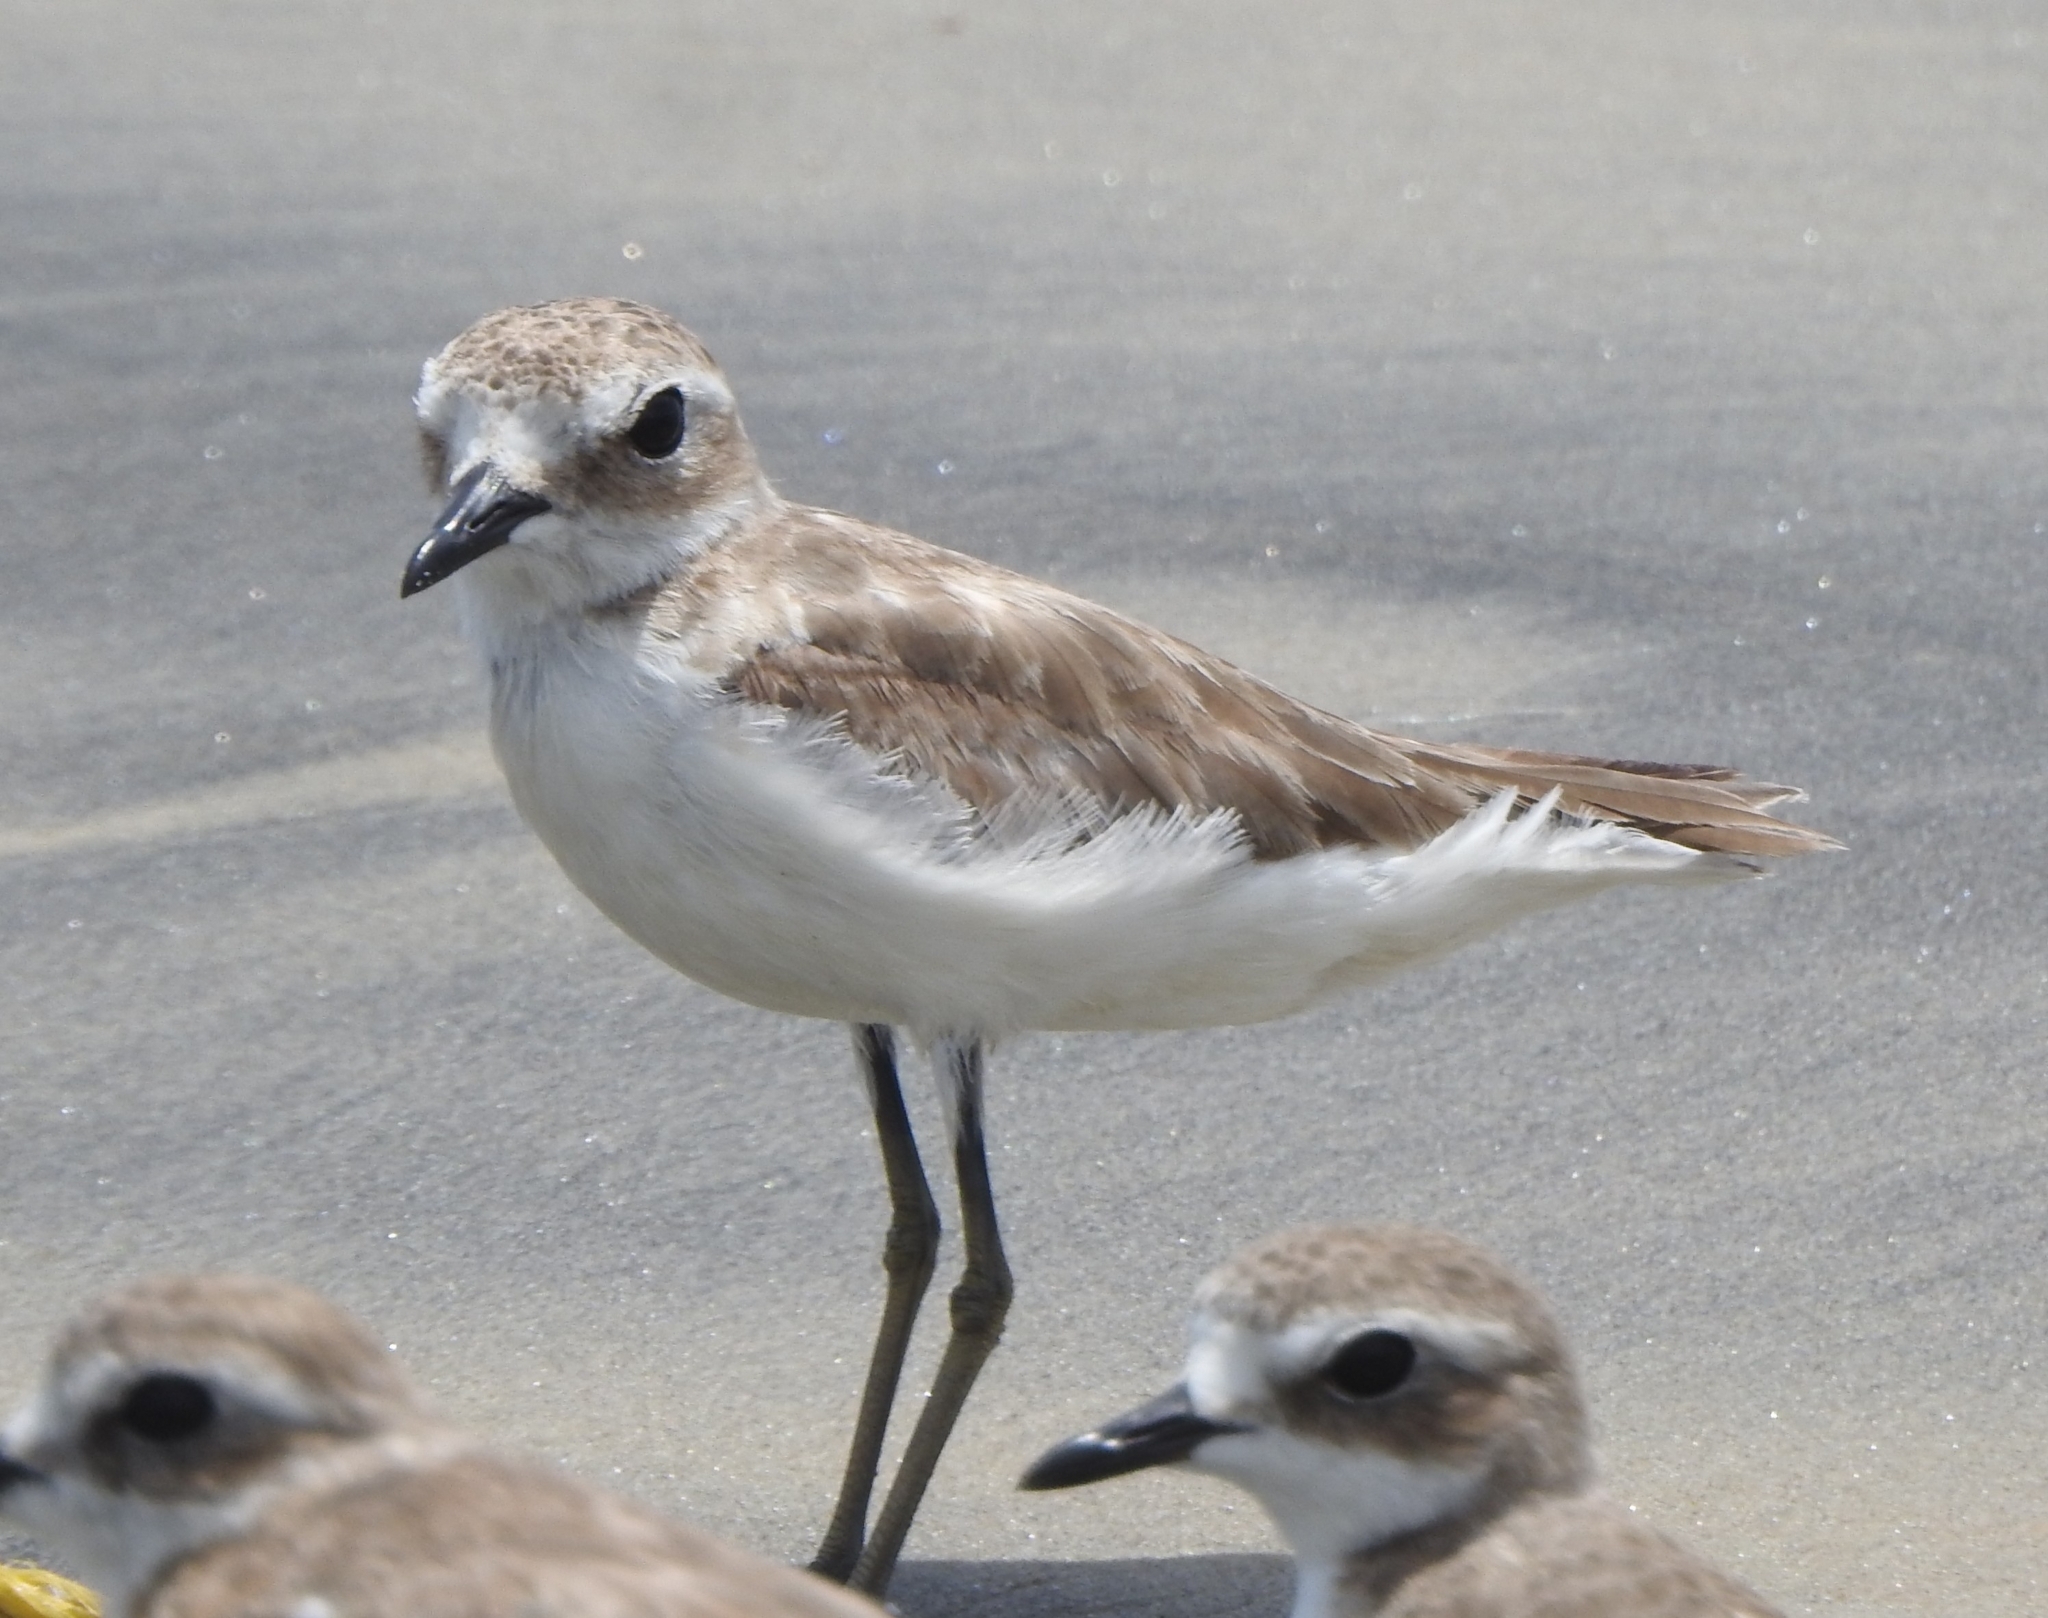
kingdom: Animalia
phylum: Chordata
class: Aves
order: Charadriiformes
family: Charadriidae
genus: Anarhynchus
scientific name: Anarhynchus
